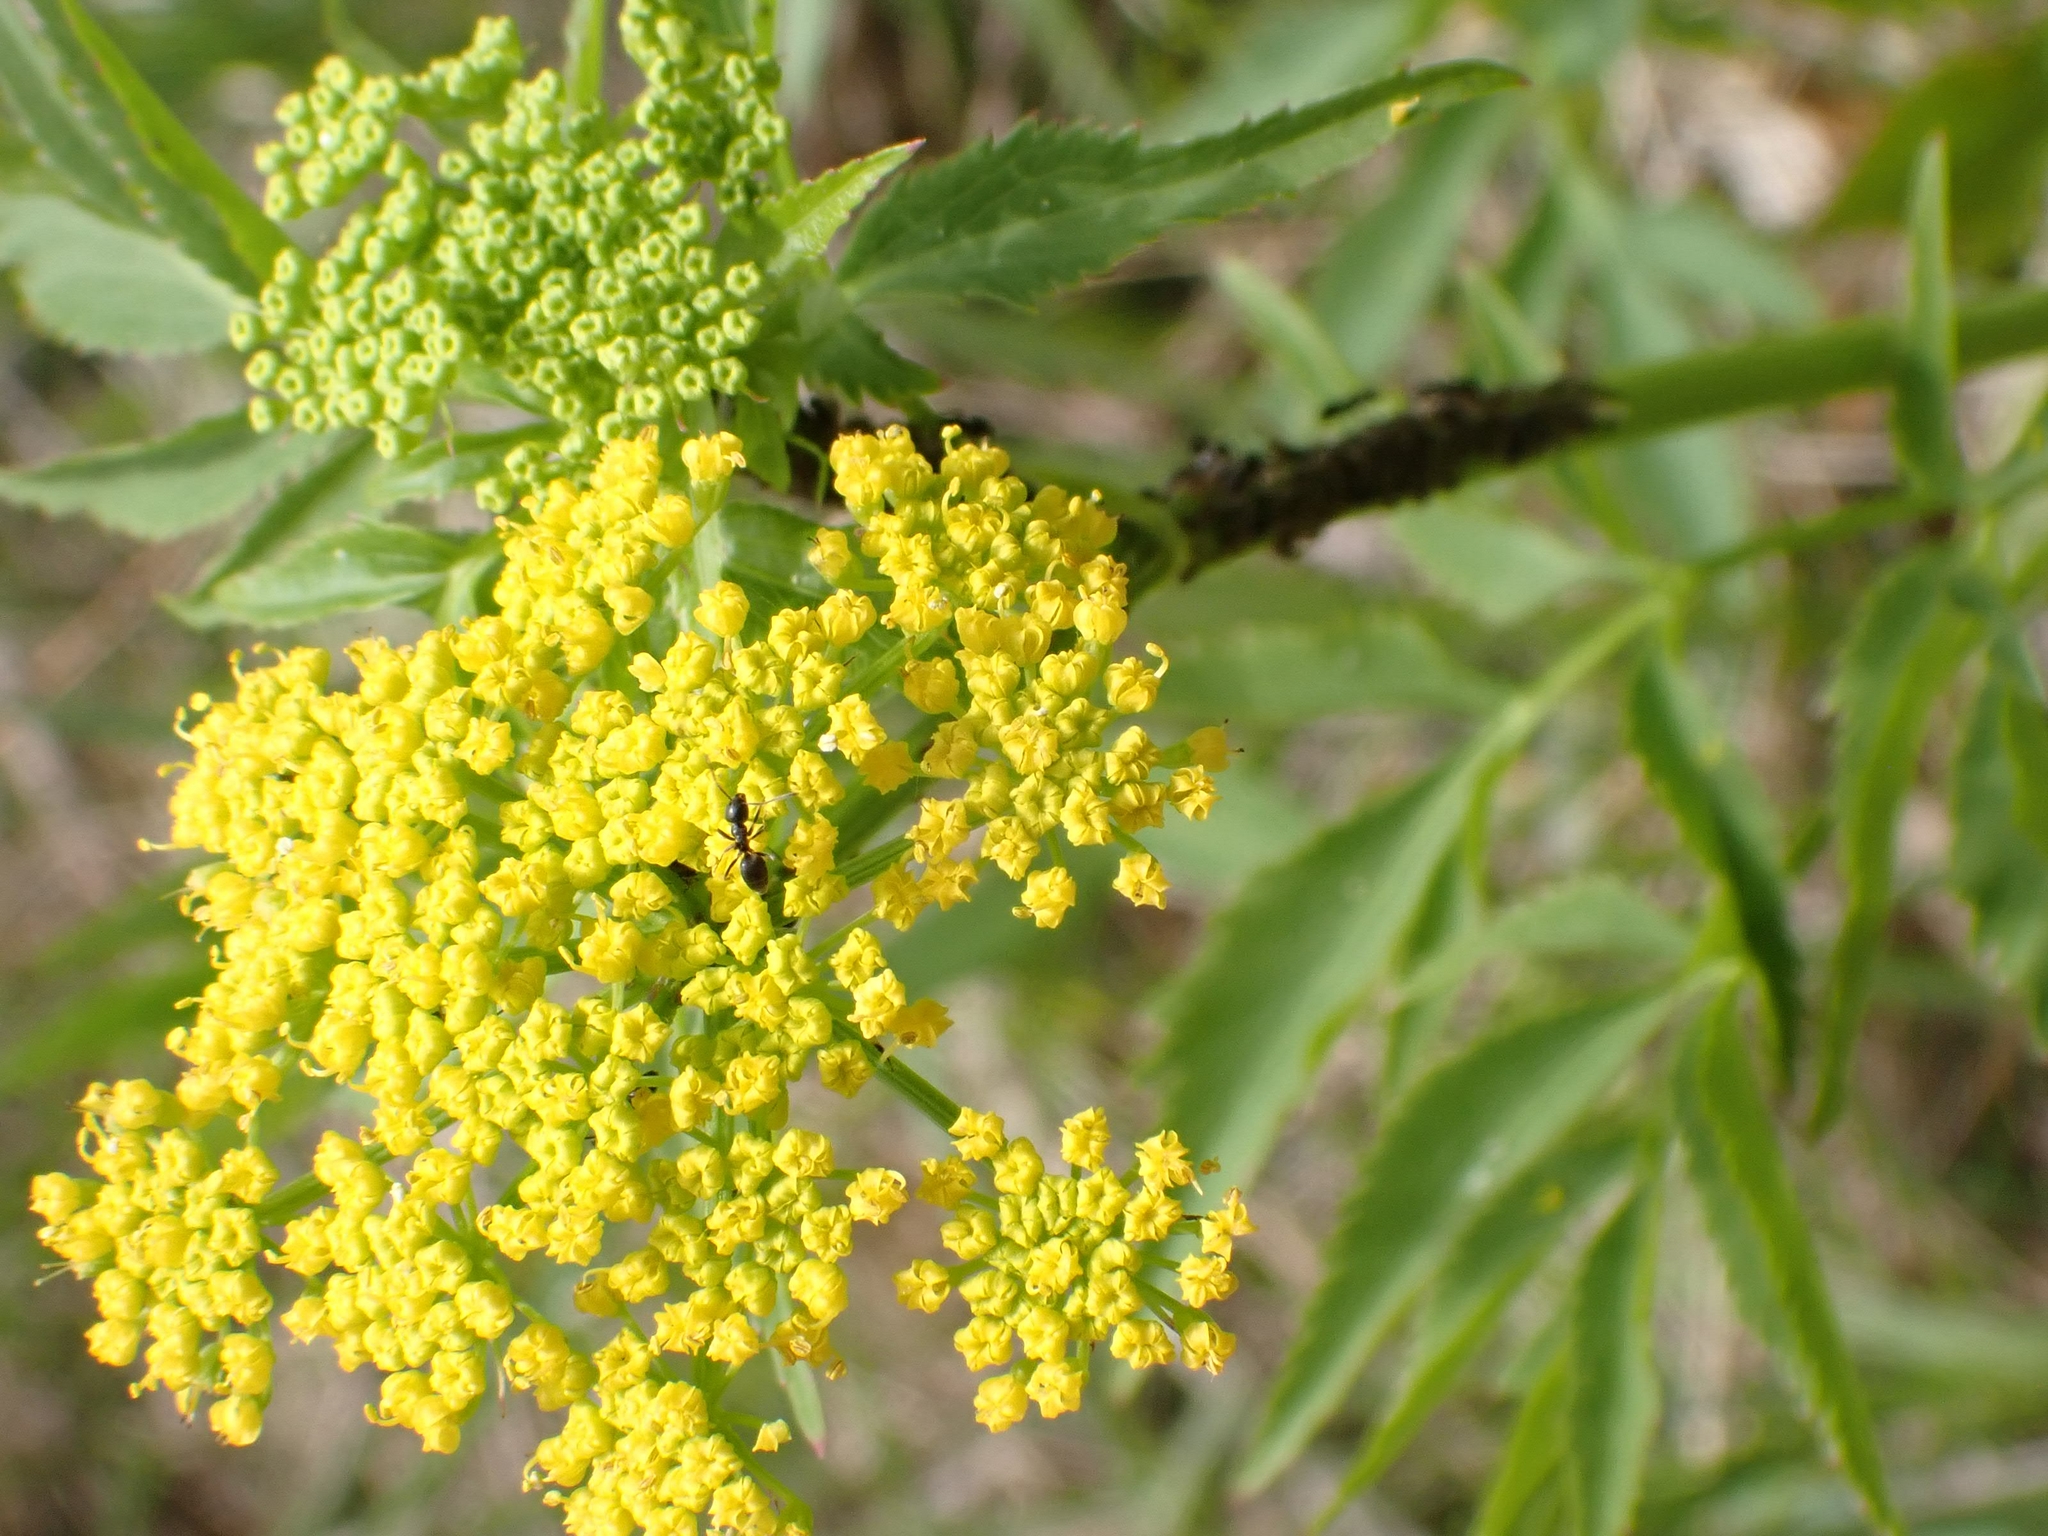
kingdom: Plantae
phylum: Tracheophyta
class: Magnoliopsida
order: Apiales
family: Apiaceae
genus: Zizia
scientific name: Zizia aurea
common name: Golden alexanders
